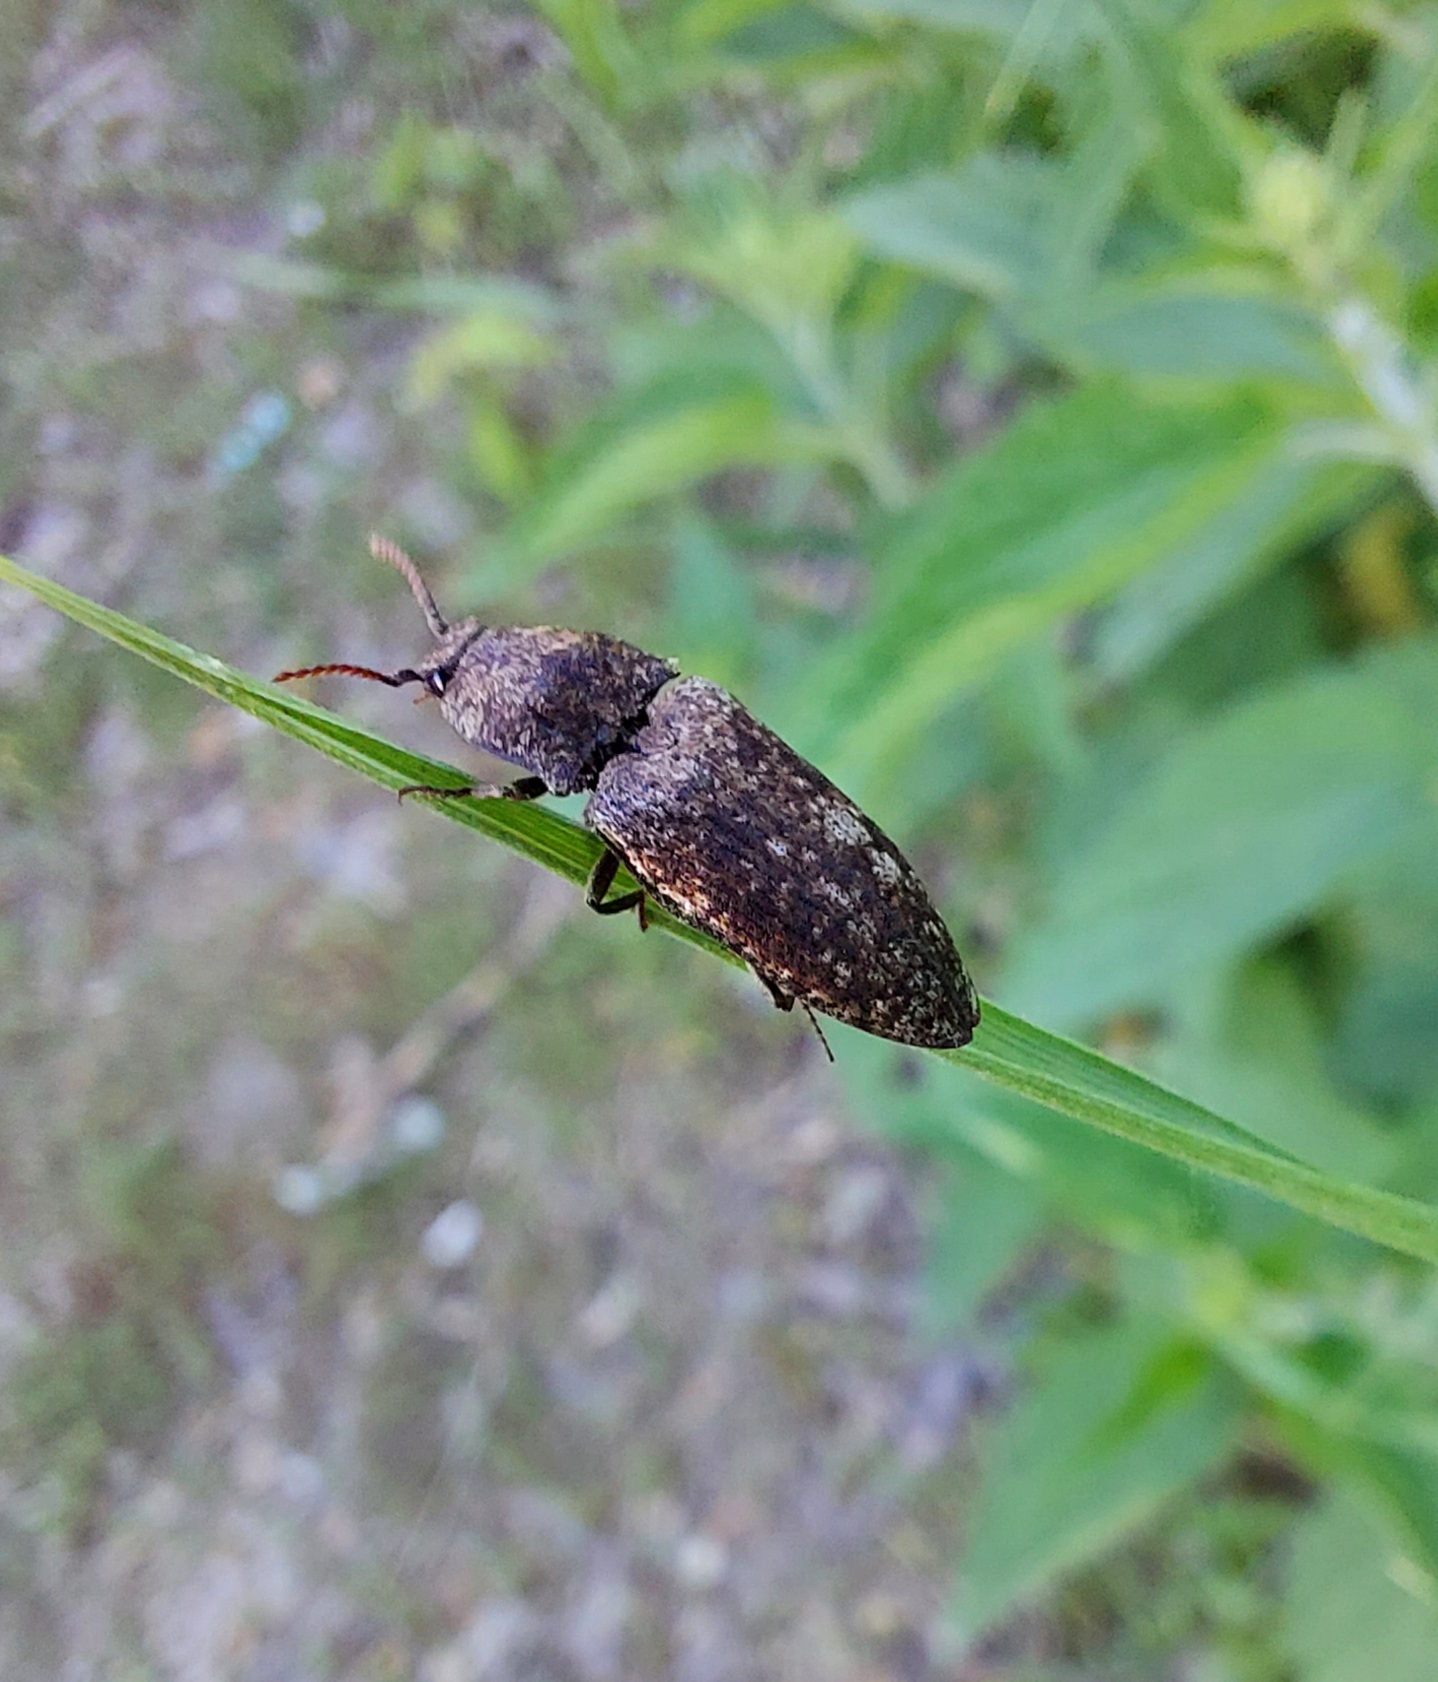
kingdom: Animalia
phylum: Arthropoda
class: Insecta
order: Coleoptera
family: Elateridae
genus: Agrypnus
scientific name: Agrypnus murinus
